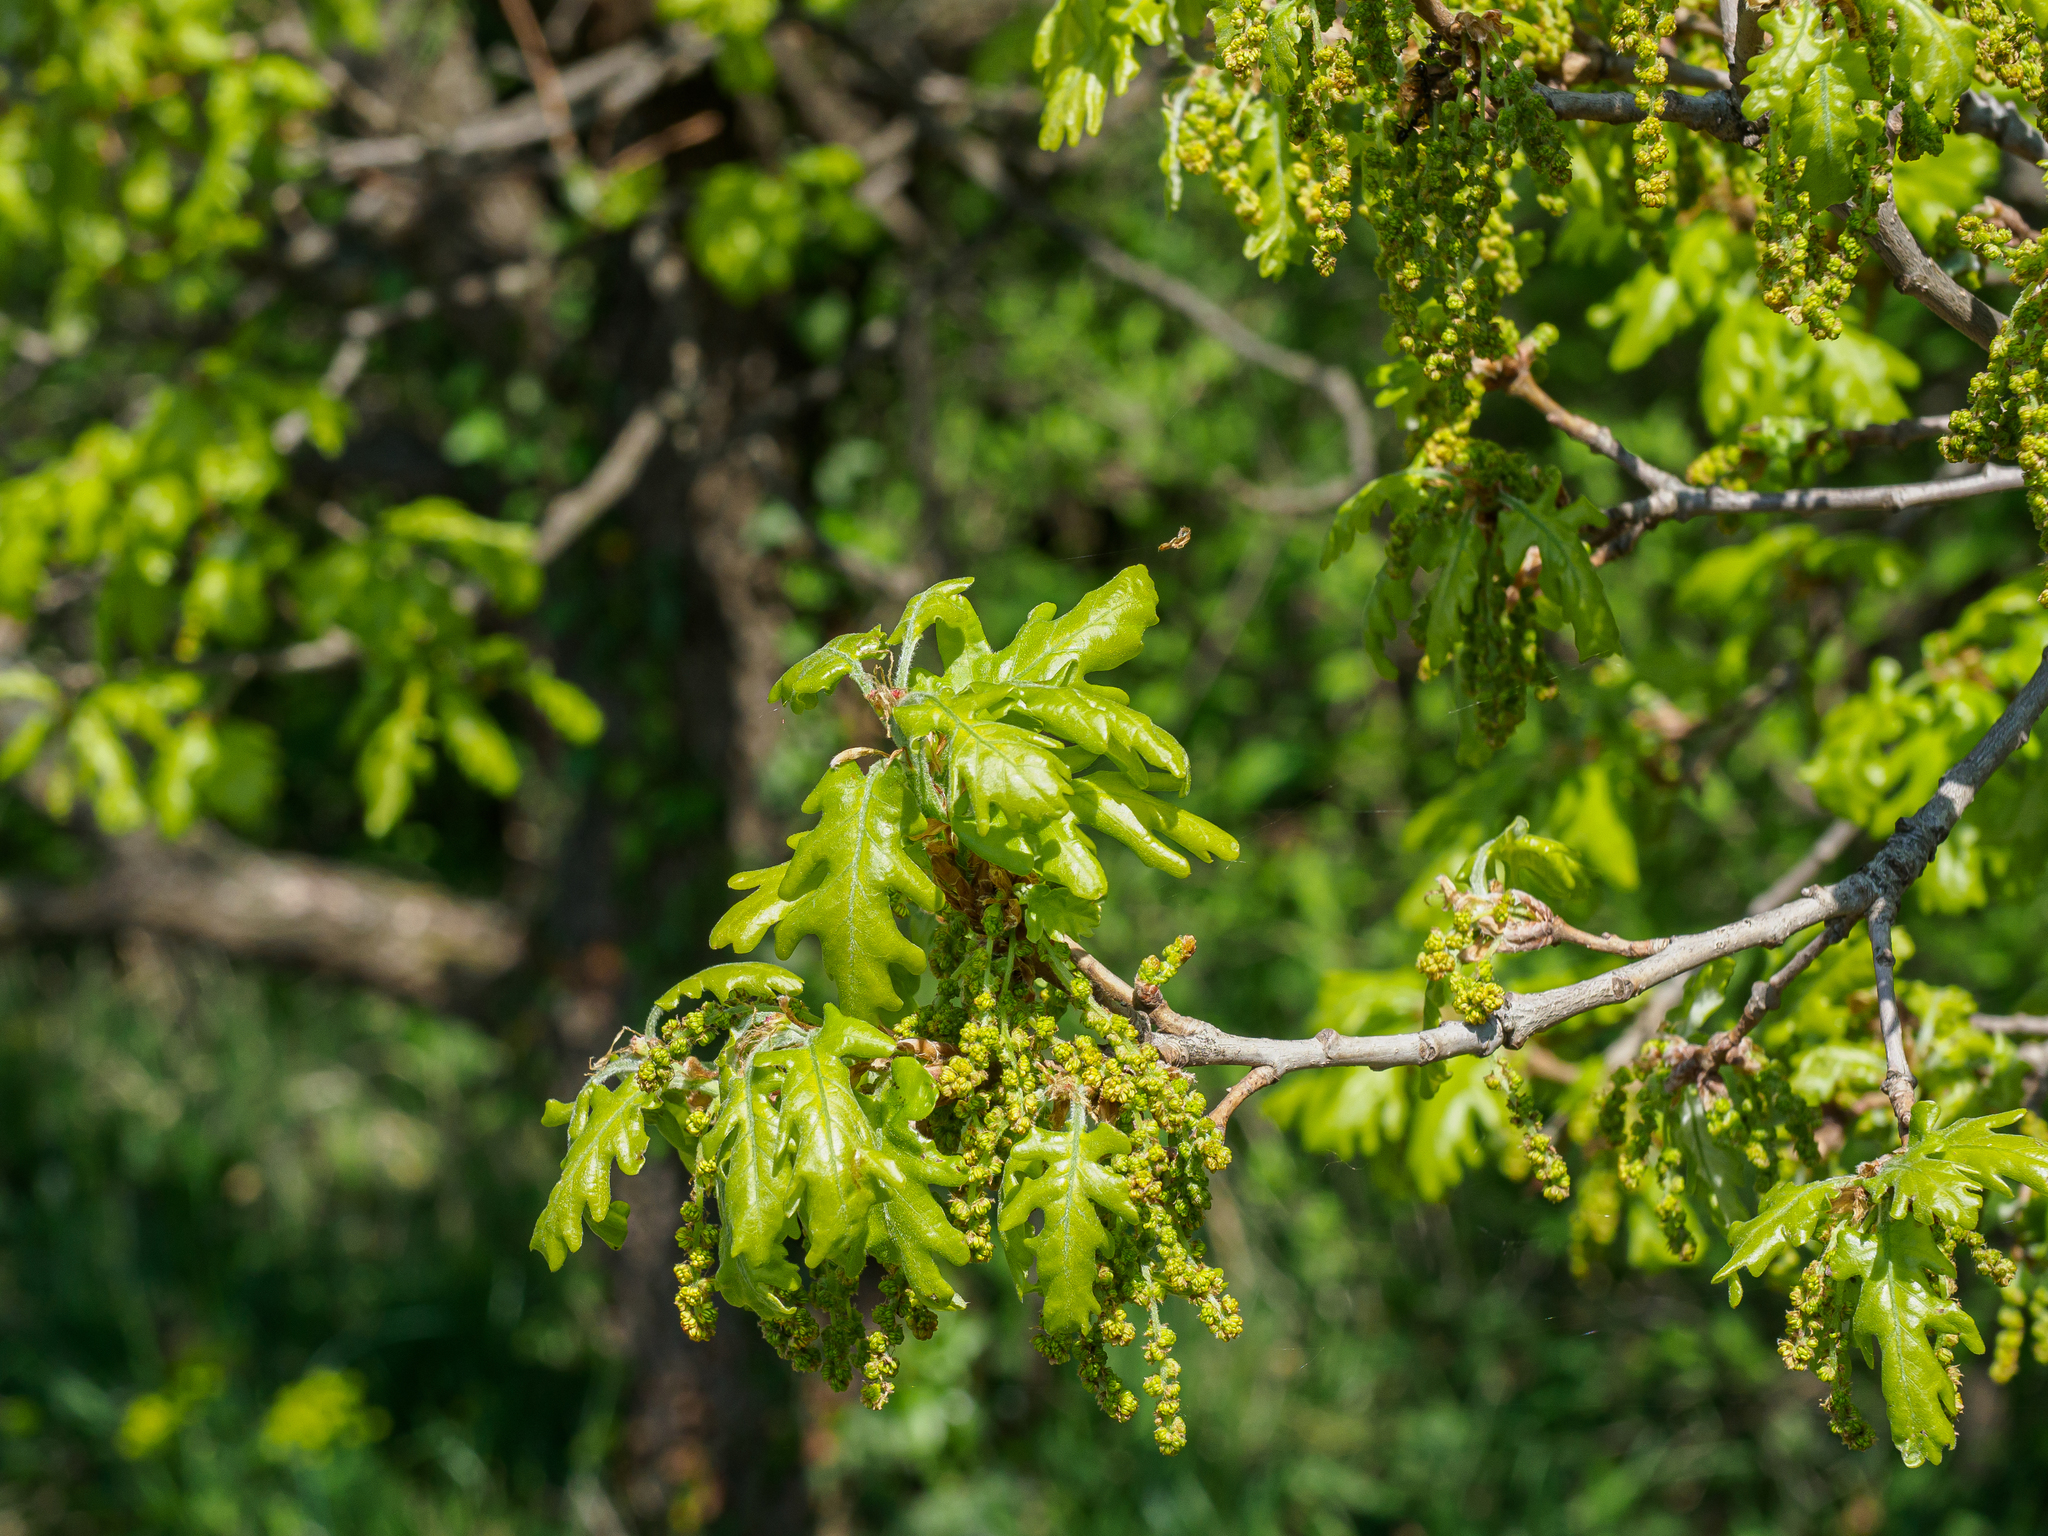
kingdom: Plantae
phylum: Tracheophyta
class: Magnoliopsida
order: Fagales
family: Fagaceae
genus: Quercus
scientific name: Quercus pubescens
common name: Downy oak
